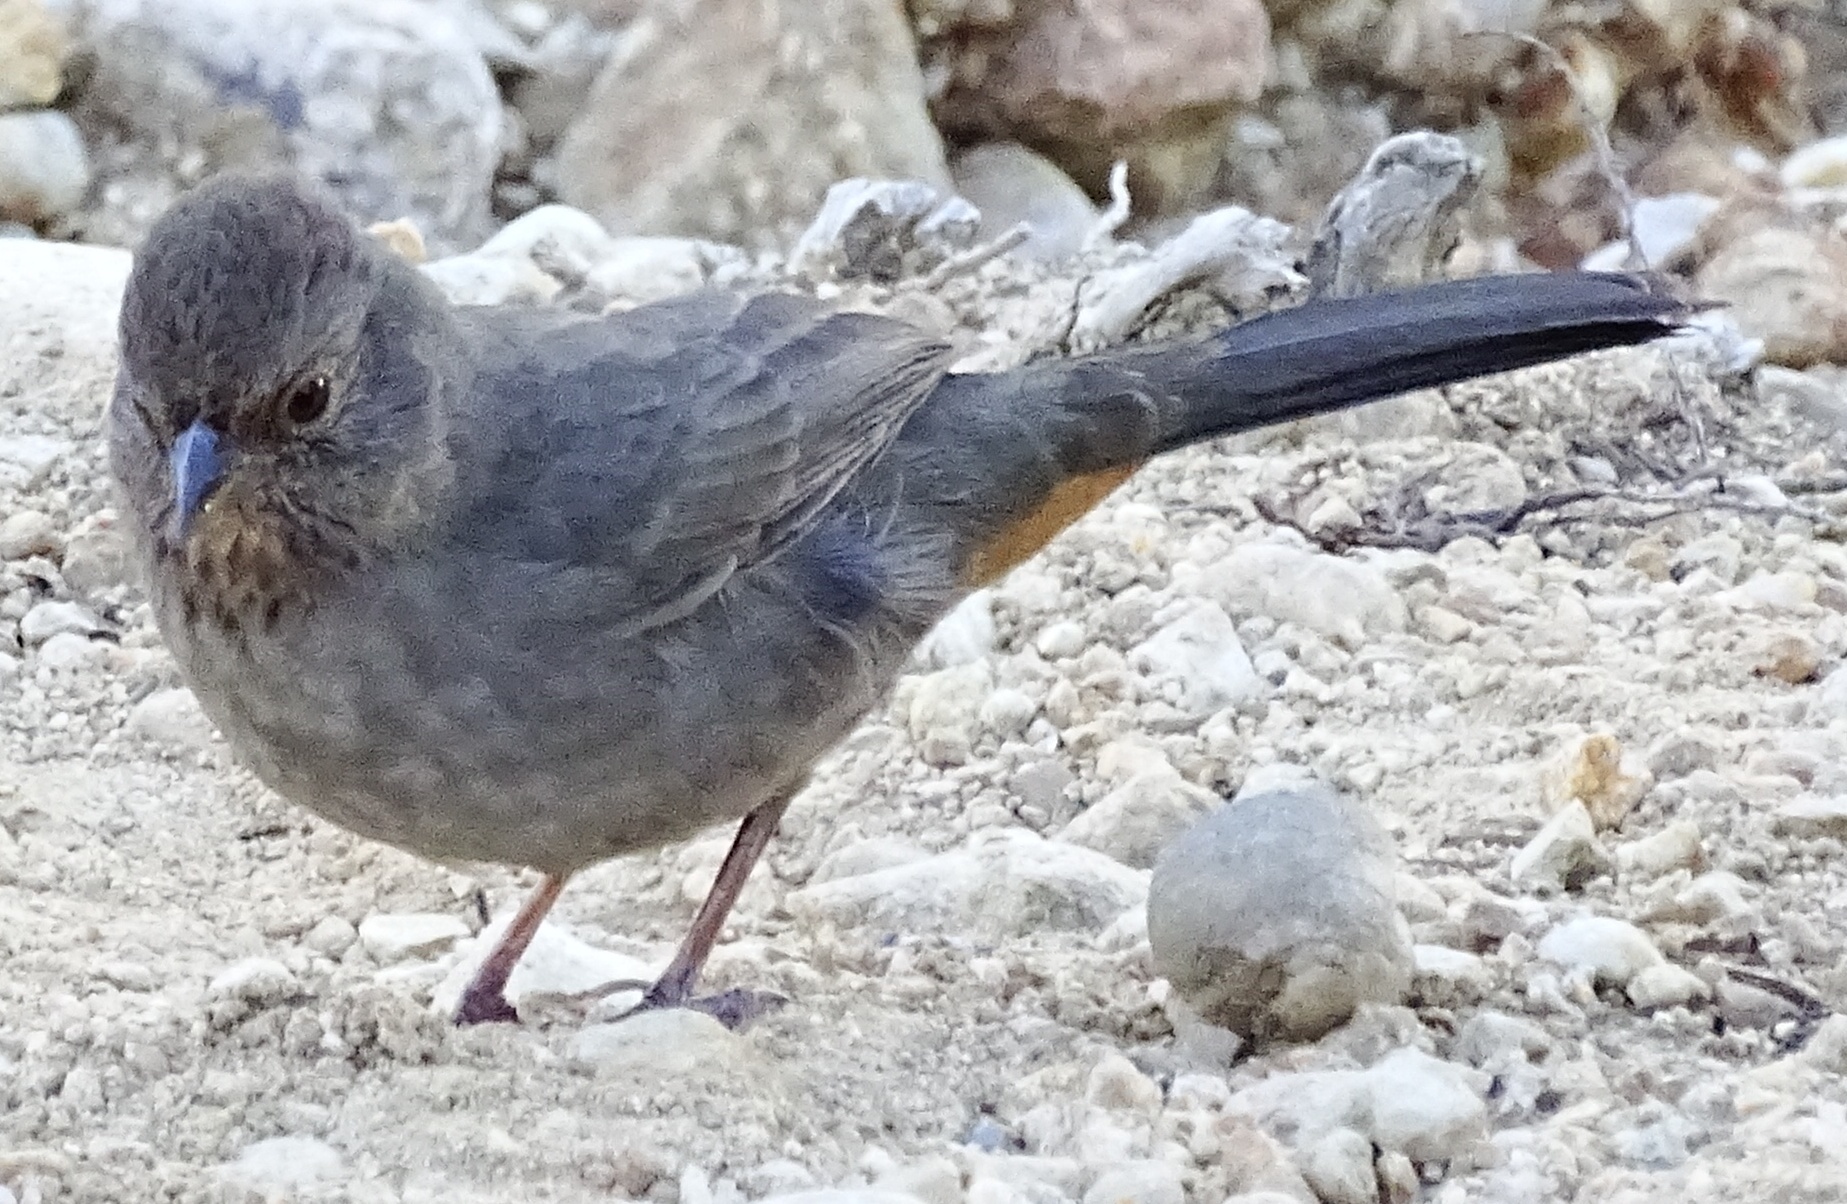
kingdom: Animalia
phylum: Chordata
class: Aves
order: Passeriformes
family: Passerellidae
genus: Melozone
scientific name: Melozone crissalis
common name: California towhee
